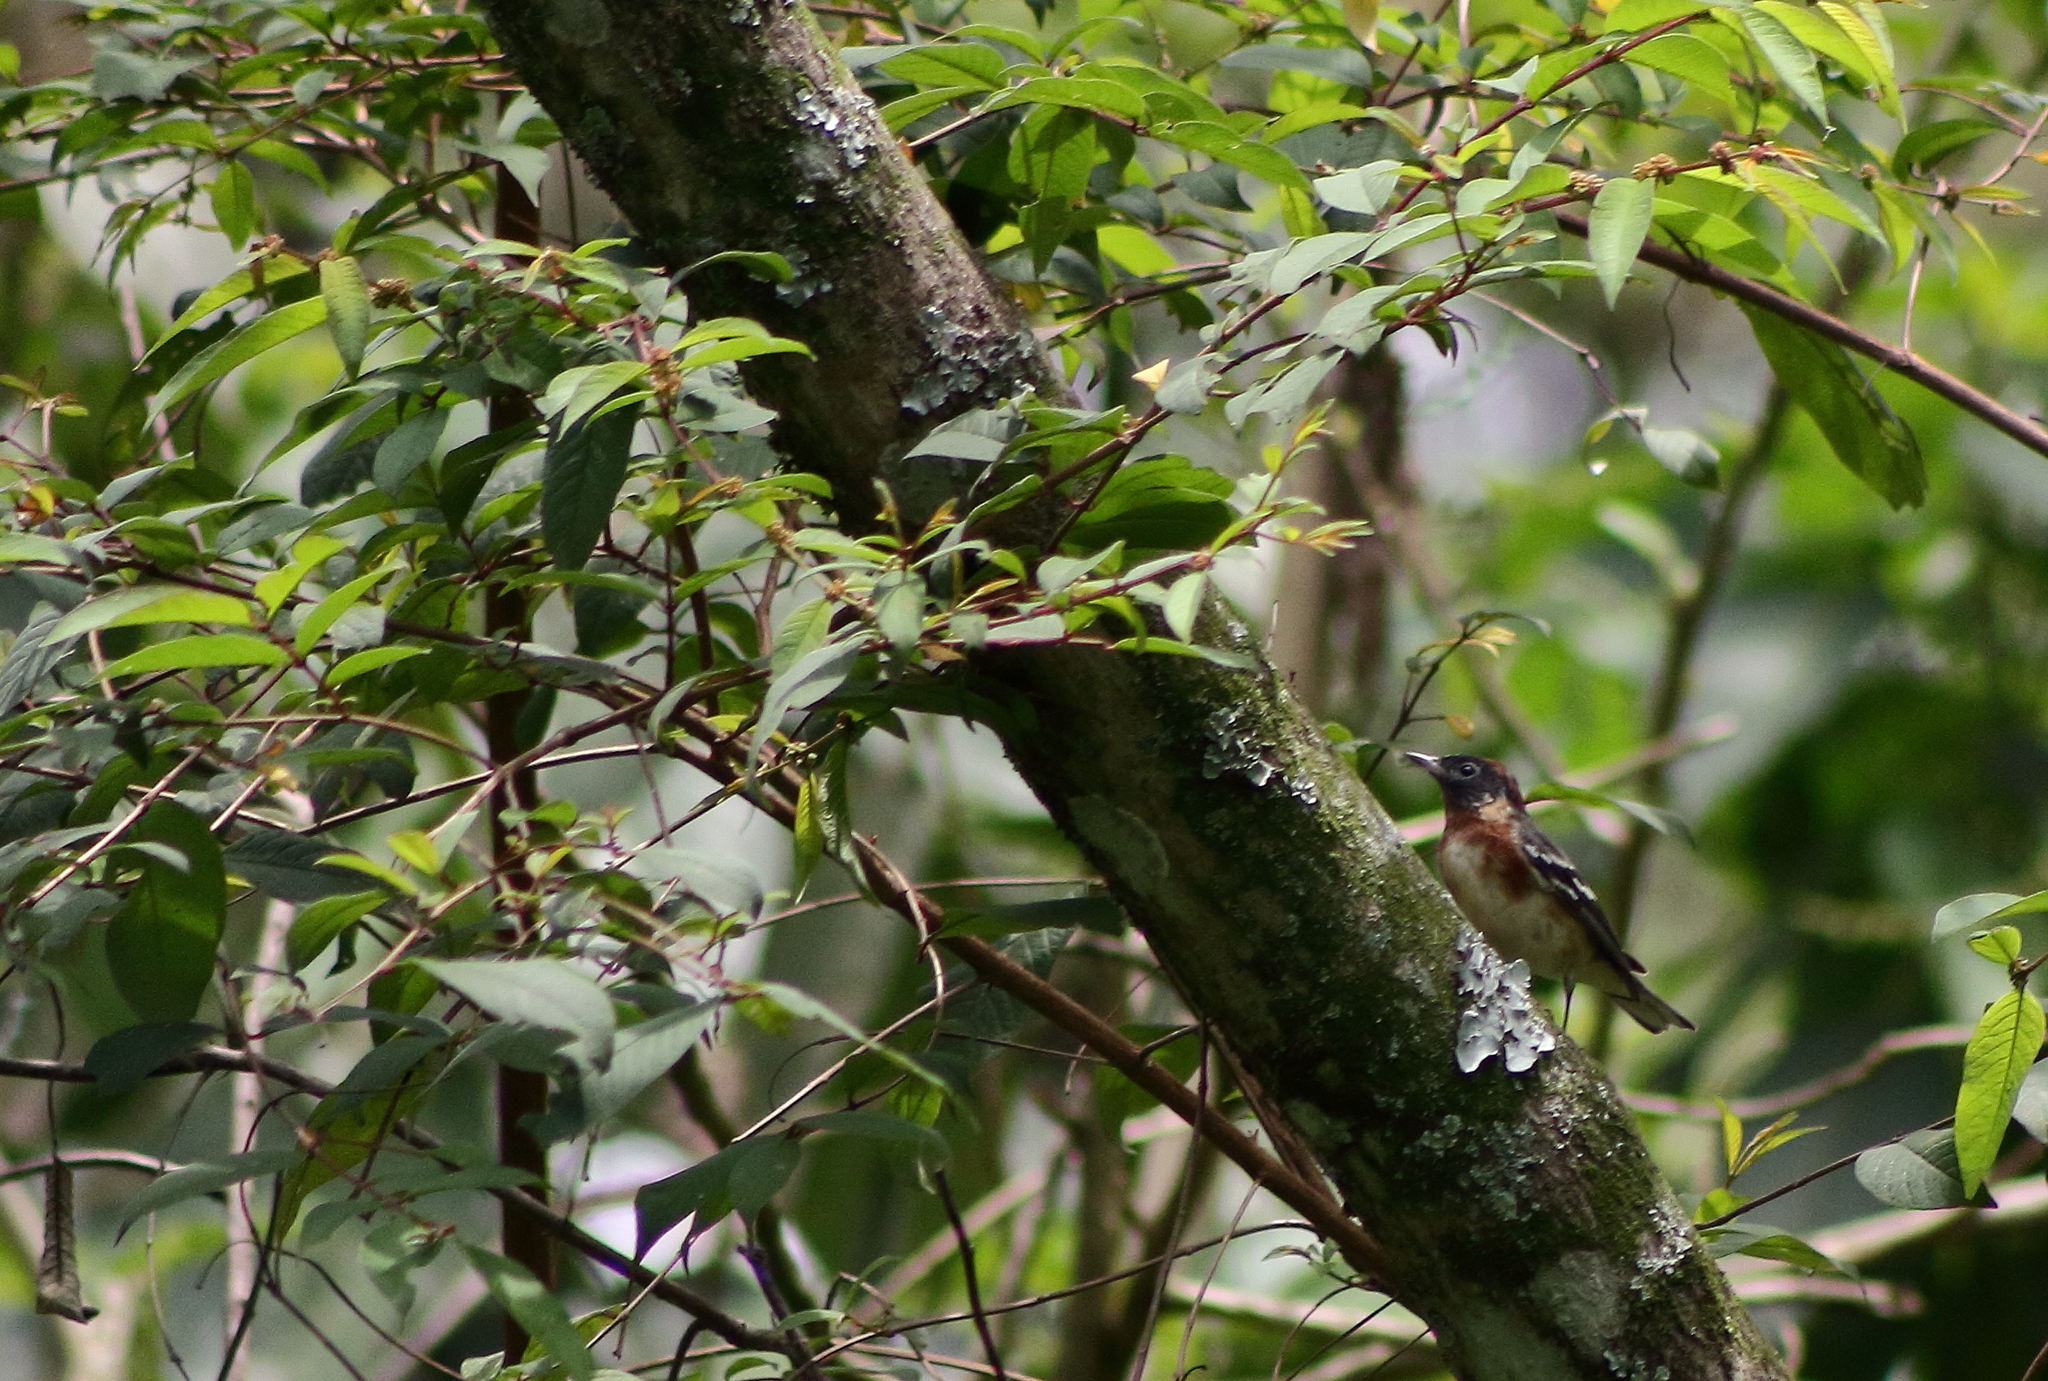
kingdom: Animalia
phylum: Chordata
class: Aves
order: Passeriformes
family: Parulidae
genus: Setophaga
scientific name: Setophaga castanea
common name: Bay-breasted warbler
